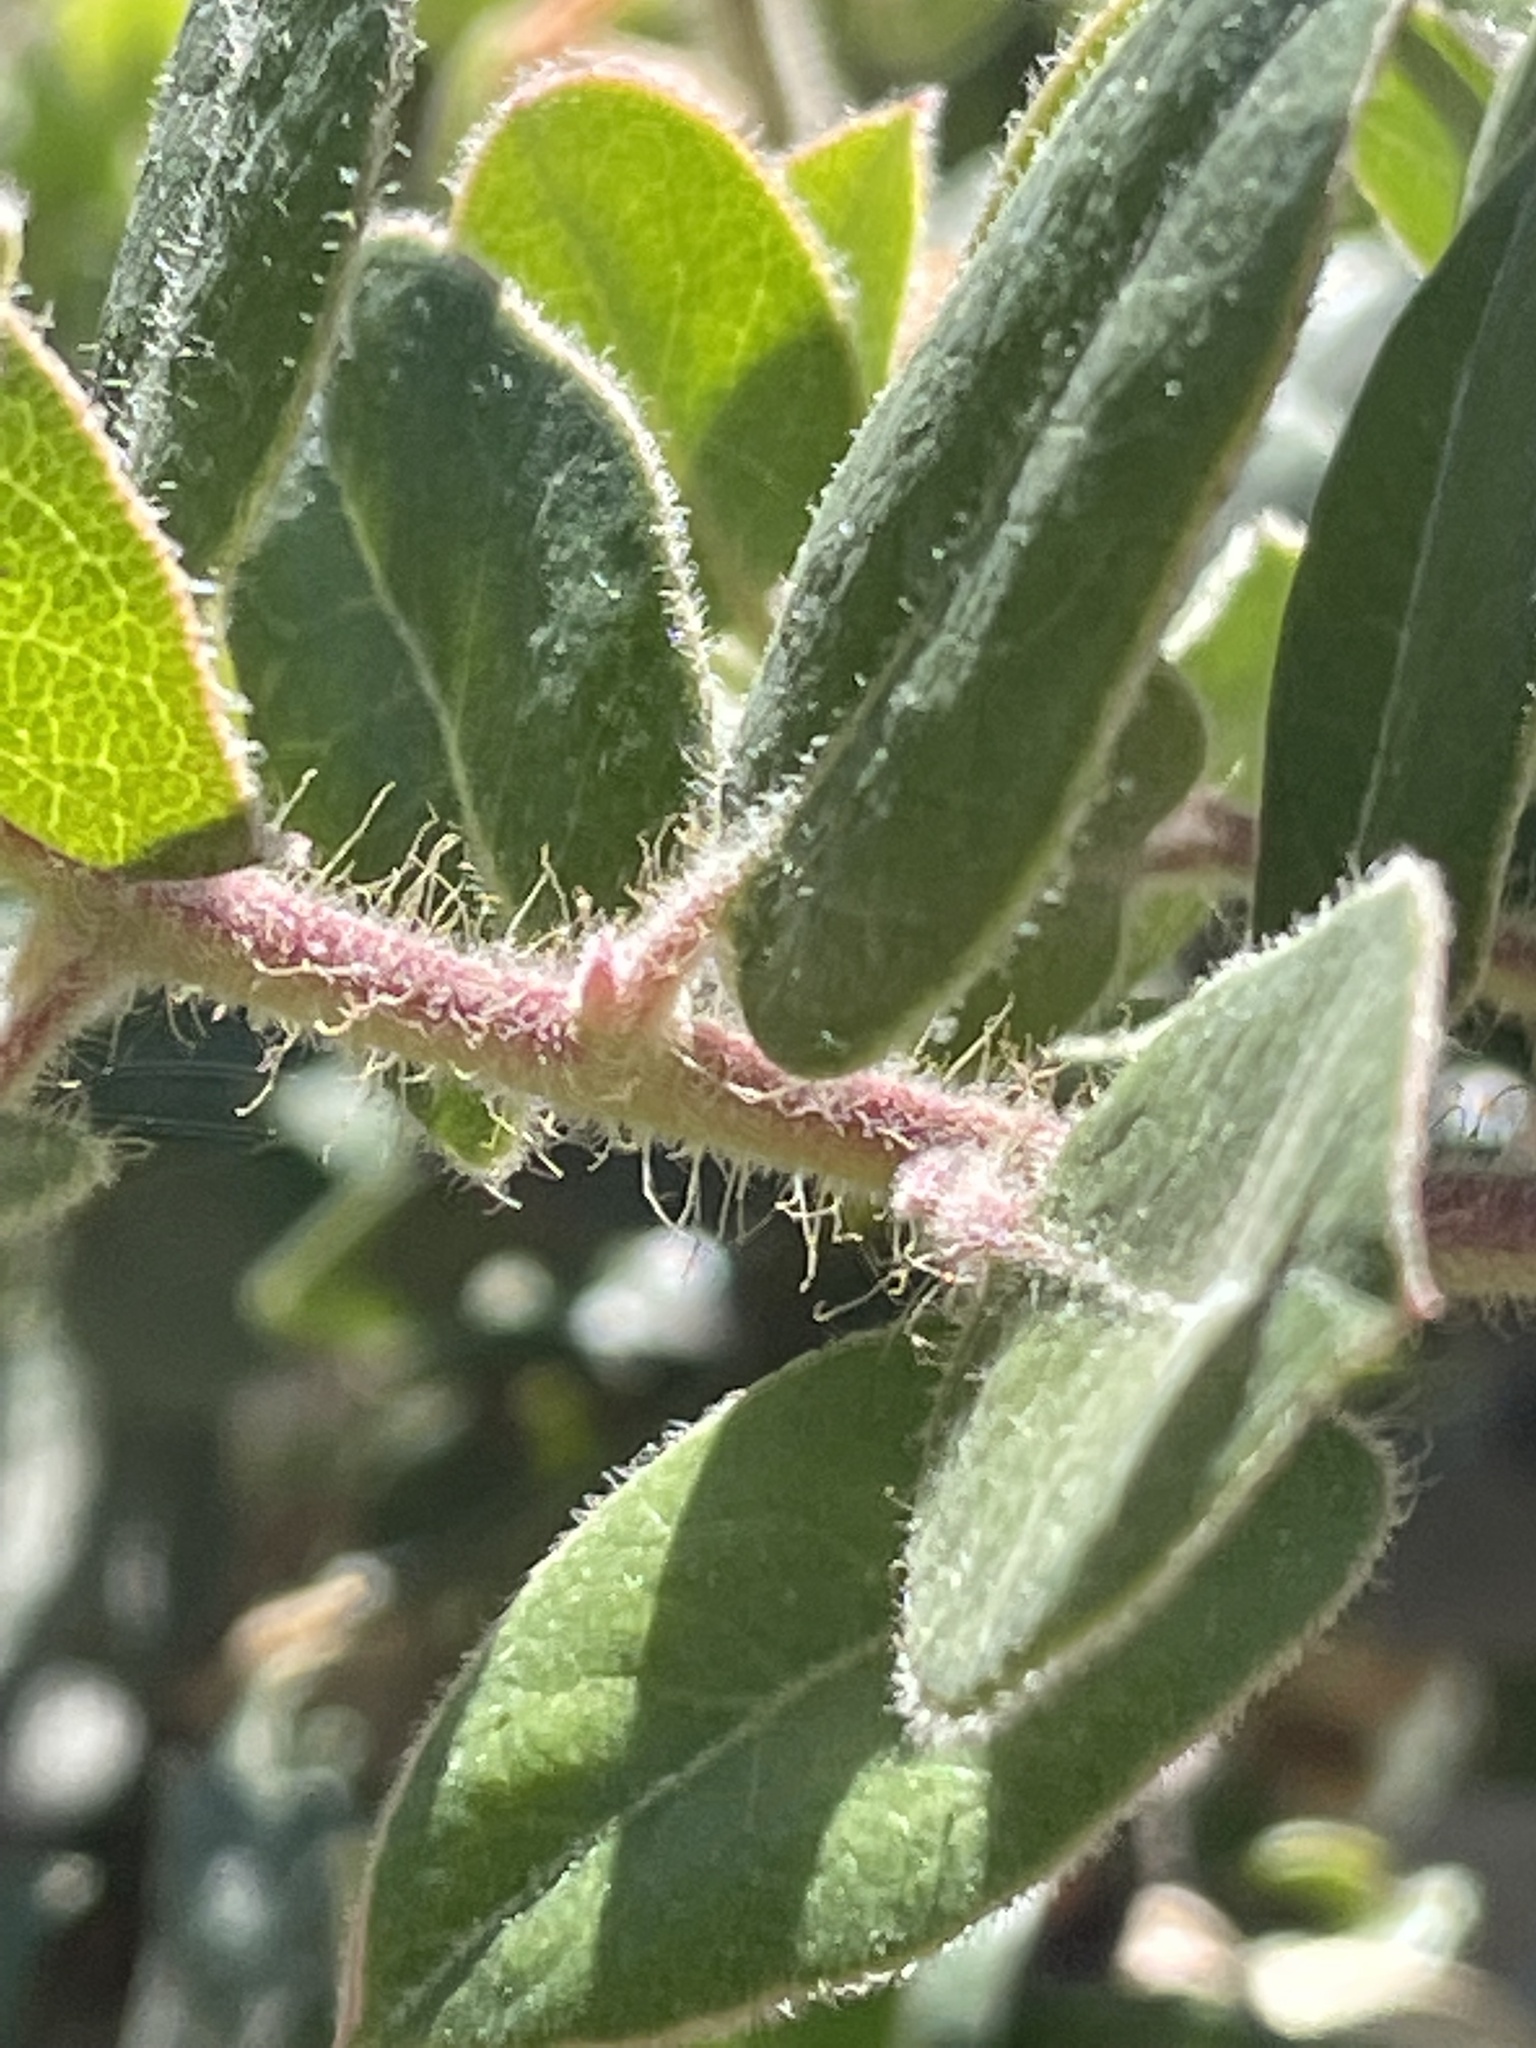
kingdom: Plantae
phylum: Tracheophyta
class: Magnoliopsida
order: Ericales
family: Ericaceae
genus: Arctostaphylos
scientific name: Arctostaphylos crustacea
